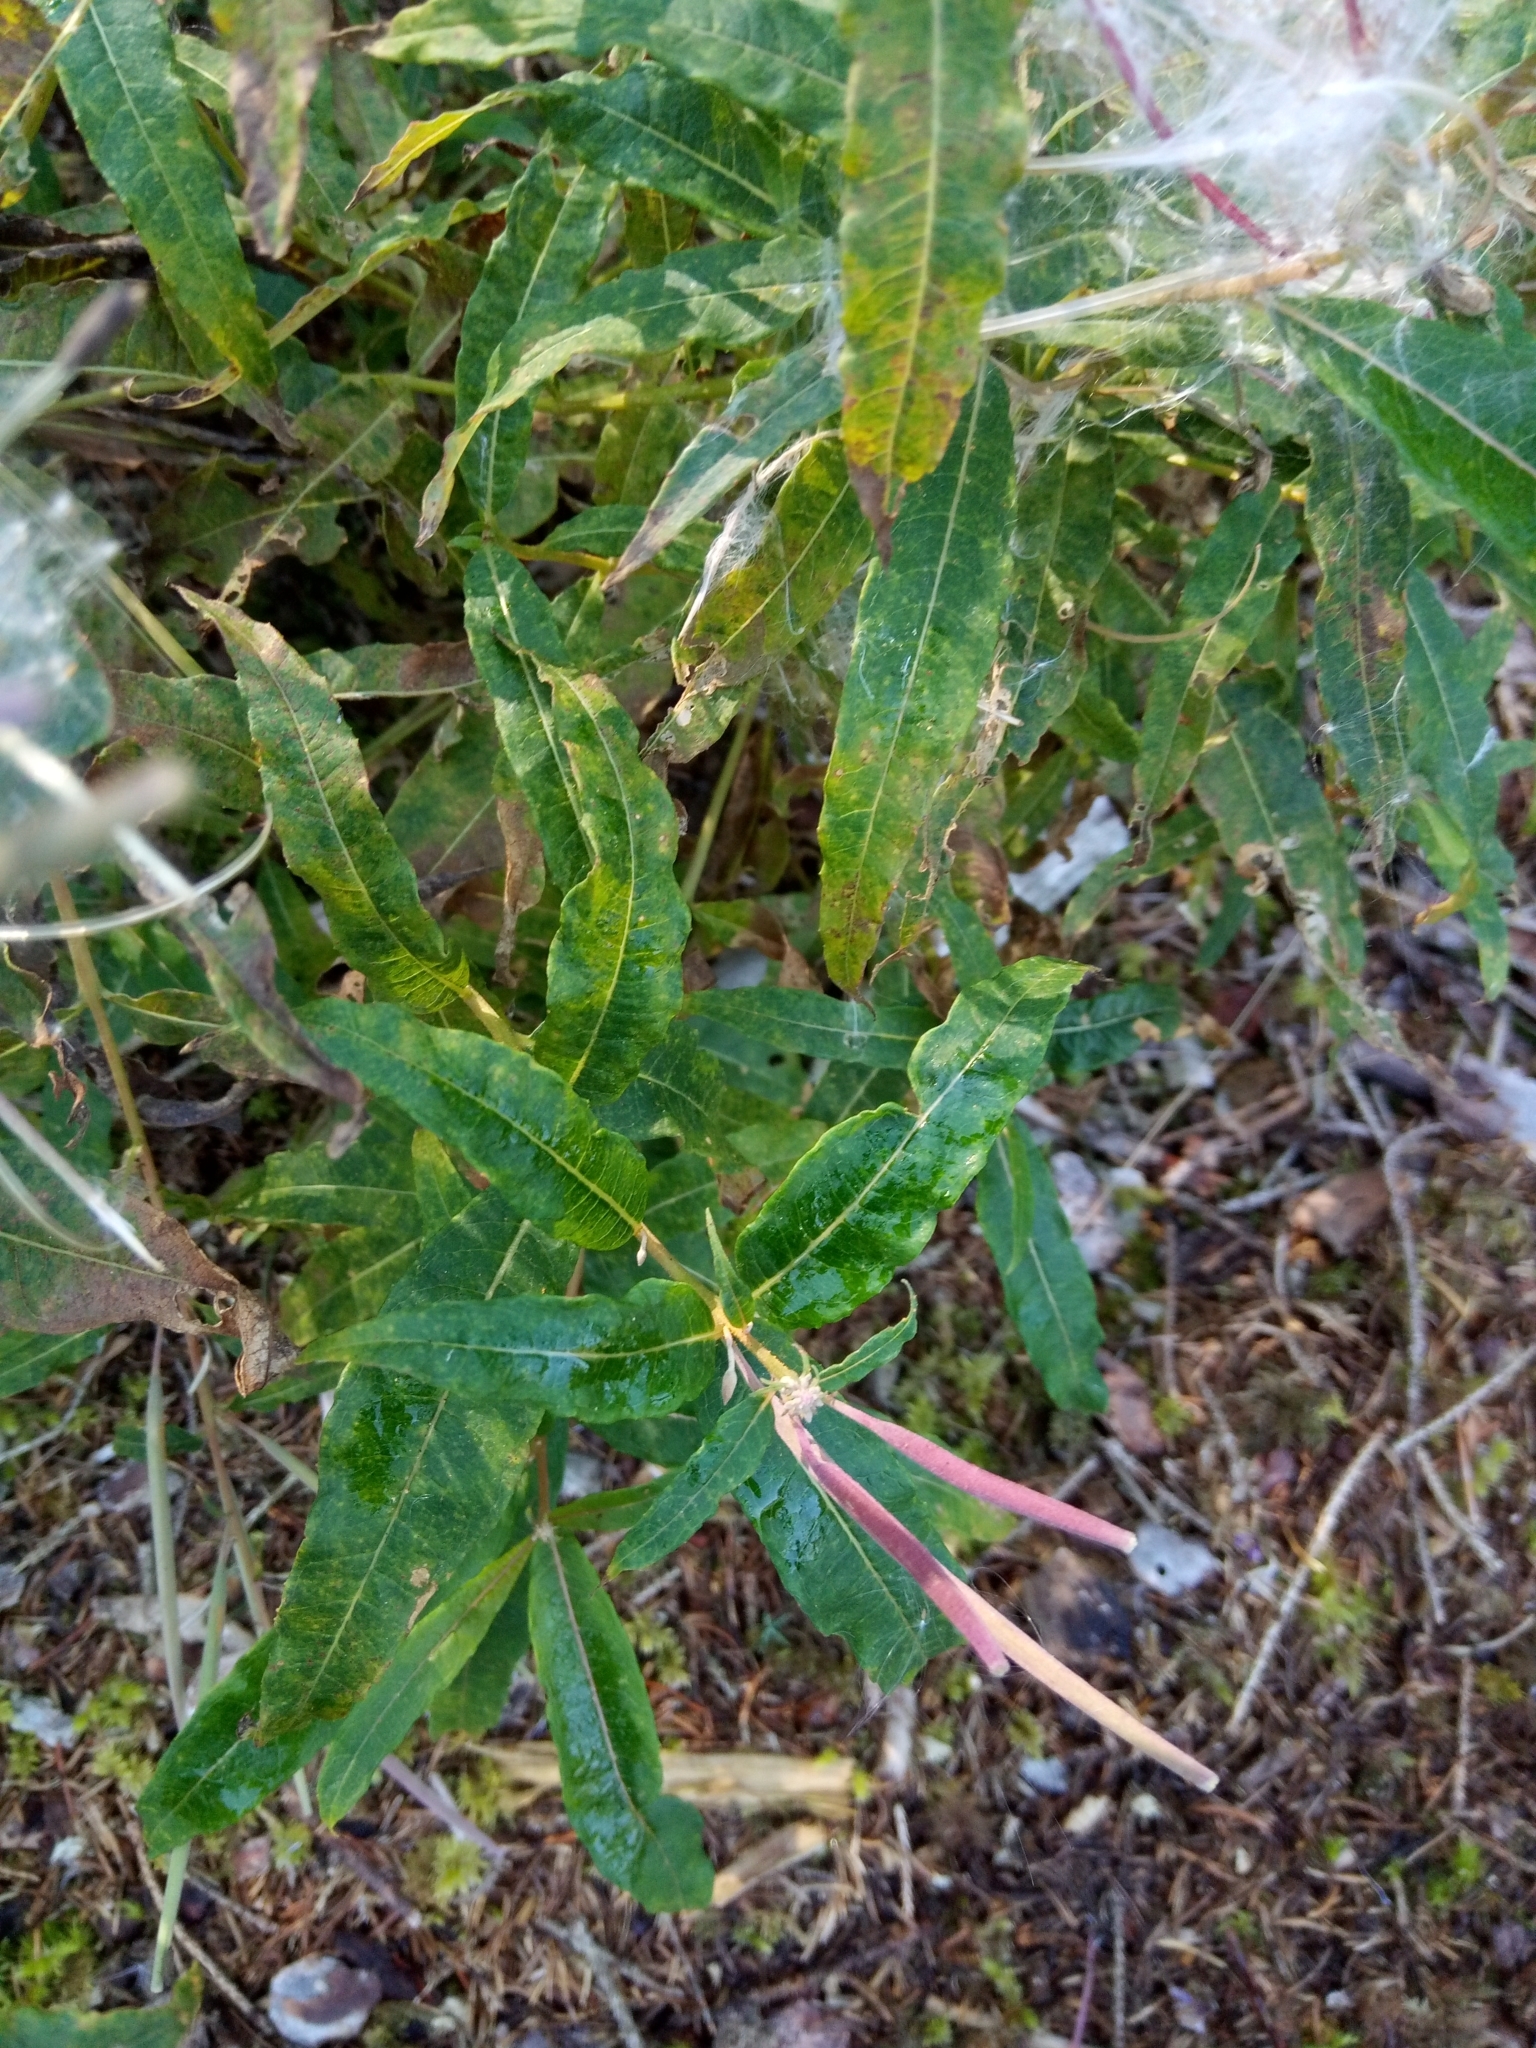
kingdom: Plantae
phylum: Tracheophyta
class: Magnoliopsida
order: Myrtales
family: Onagraceae
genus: Chamaenerion
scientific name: Chamaenerion angustifolium
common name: Fireweed
